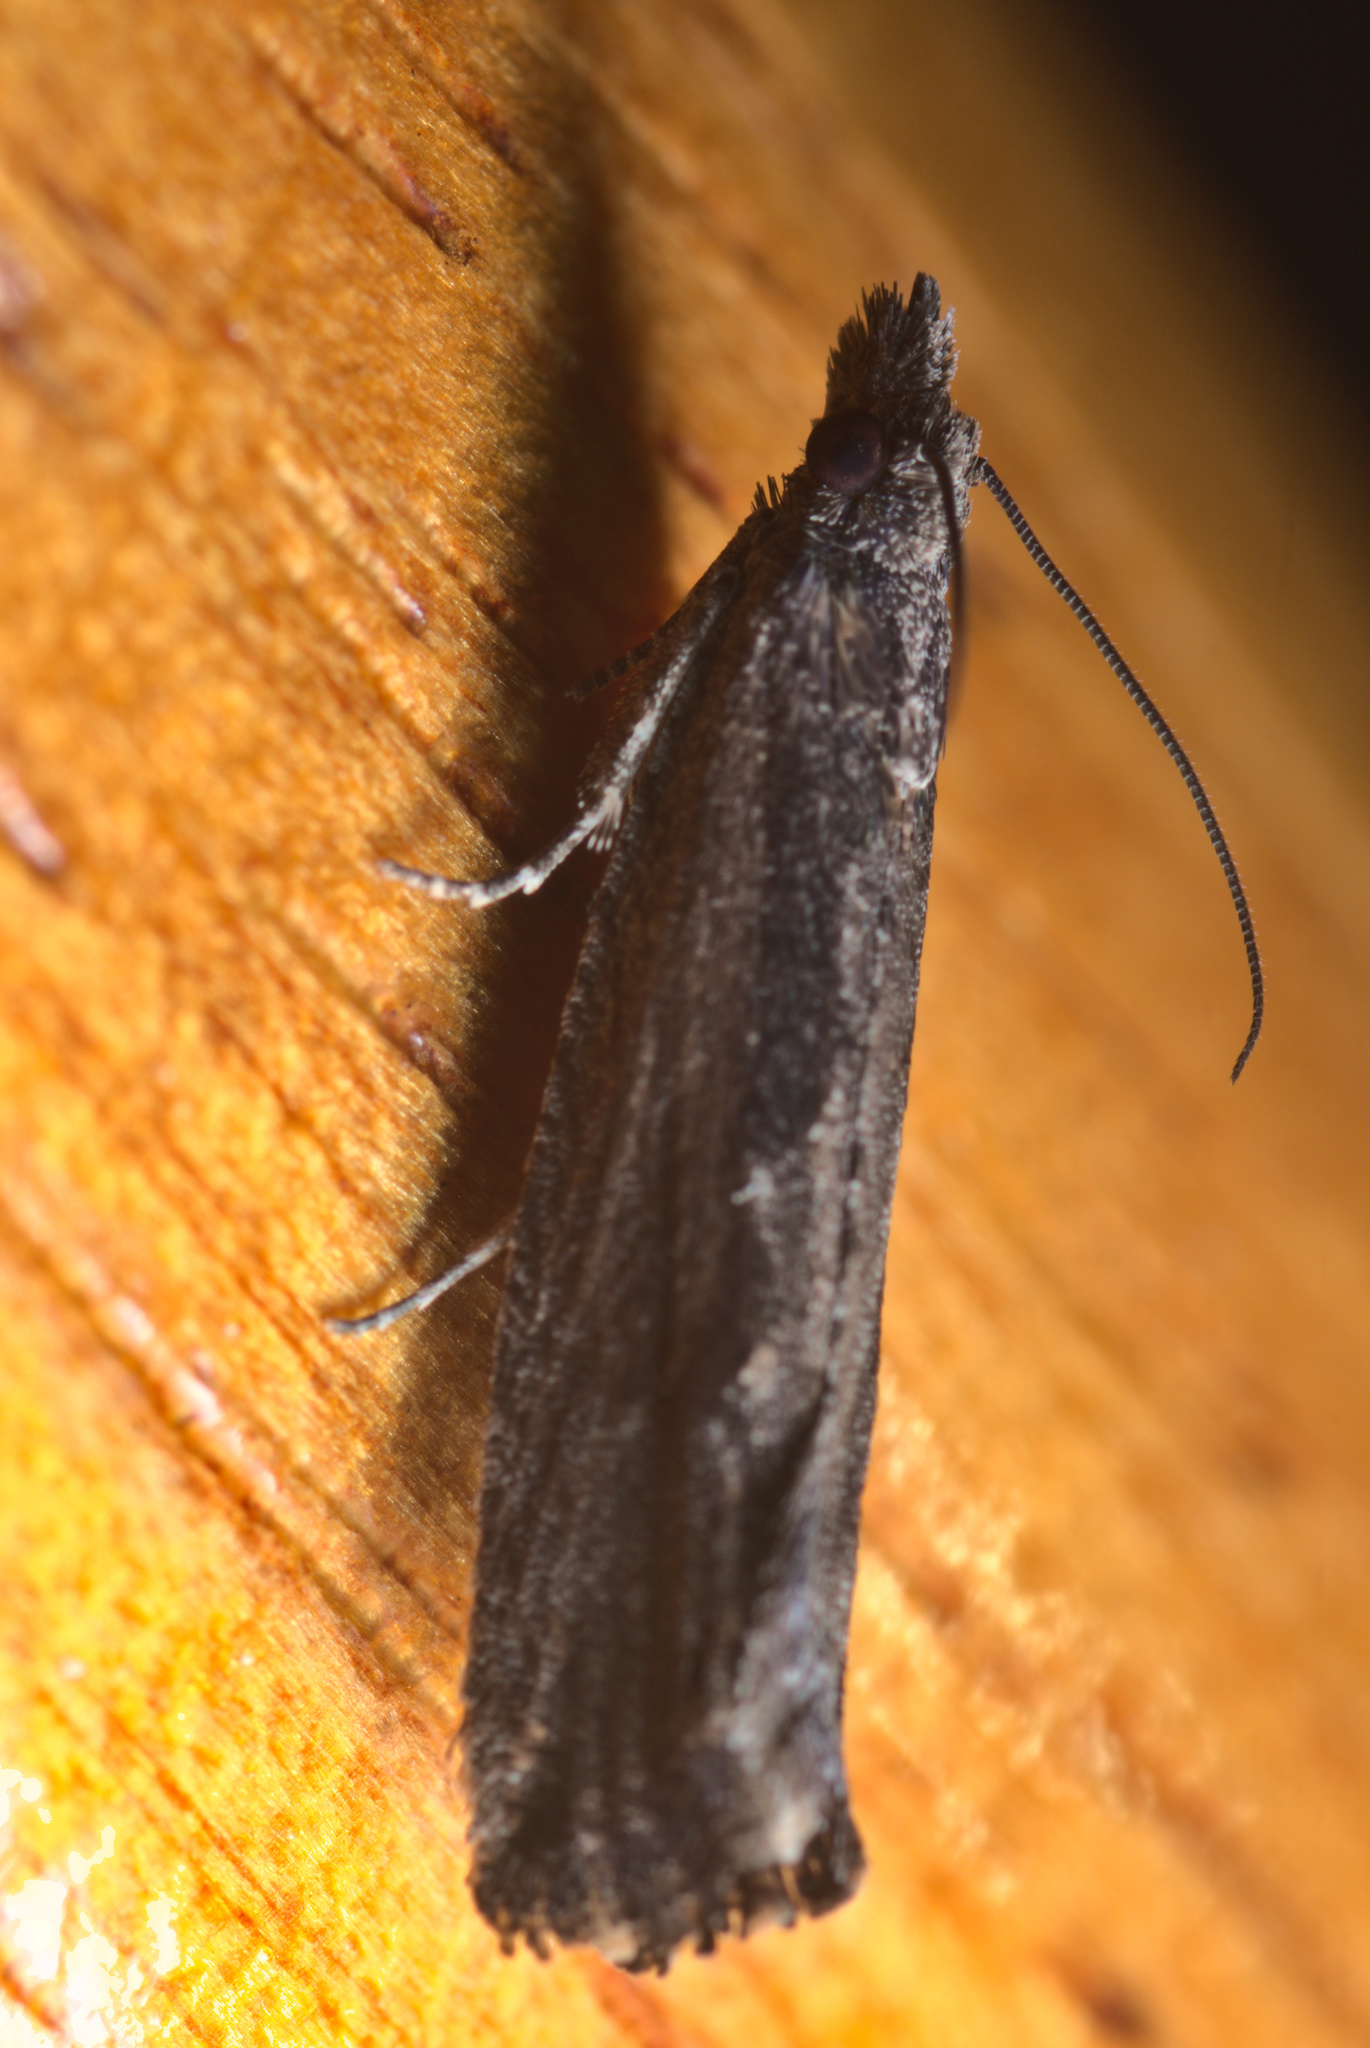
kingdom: Animalia
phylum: Arthropoda
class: Insecta
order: Lepidoptera
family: Tortricidae
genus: Strepsicrates
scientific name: Strepsicrates macropetana
